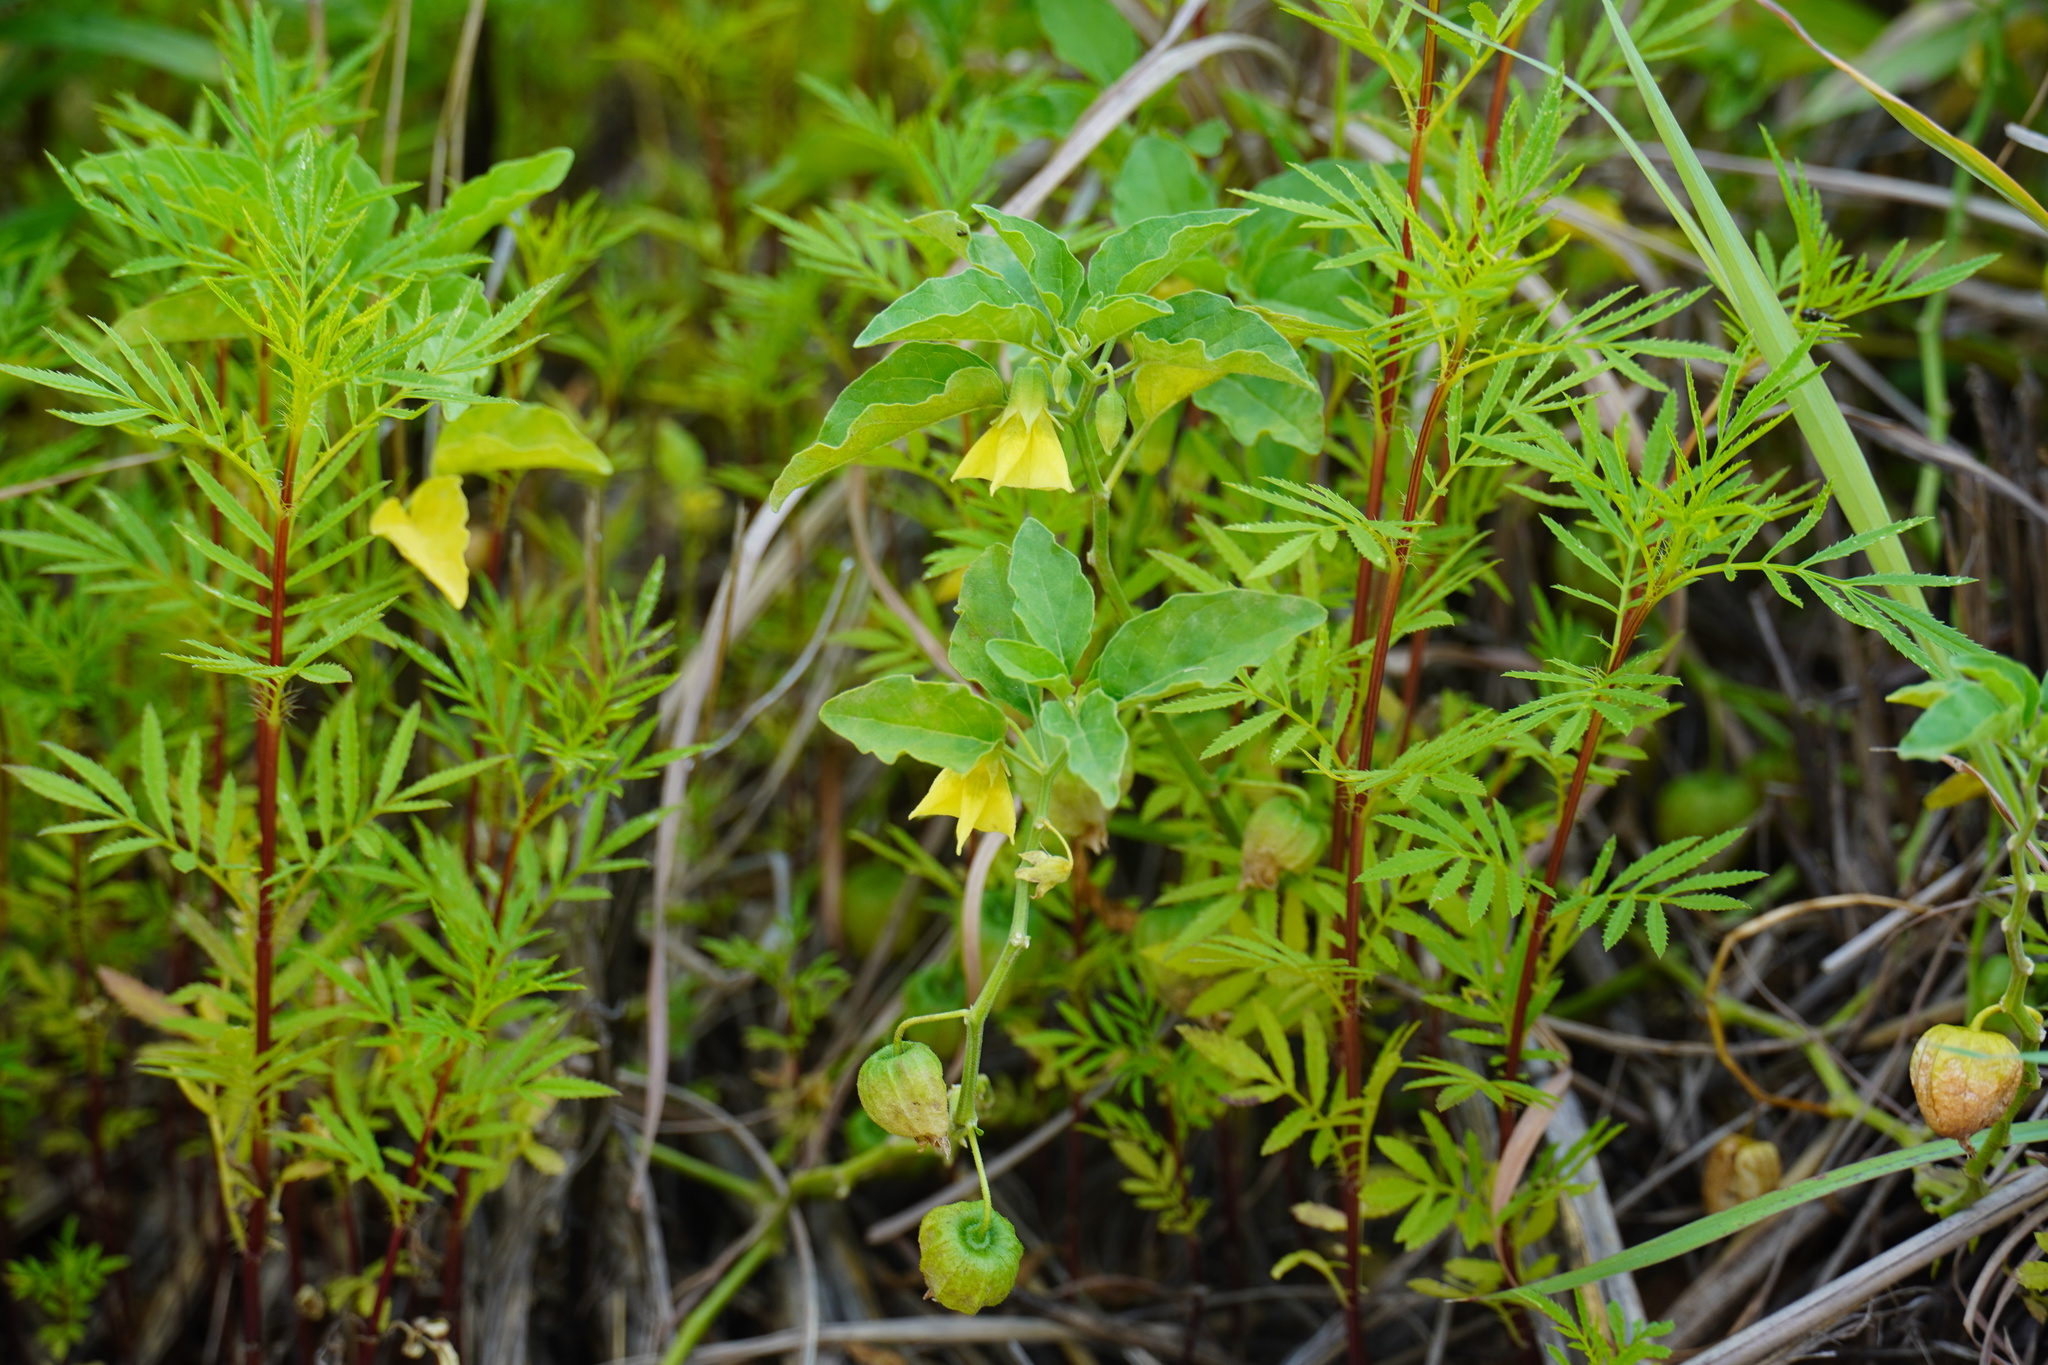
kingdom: Plantae
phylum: Tracheophyta
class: Magnoliopsida
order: Solanales
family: Solanaceae
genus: Physalis
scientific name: Physalis viscosa
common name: Stellate ground-cherry
